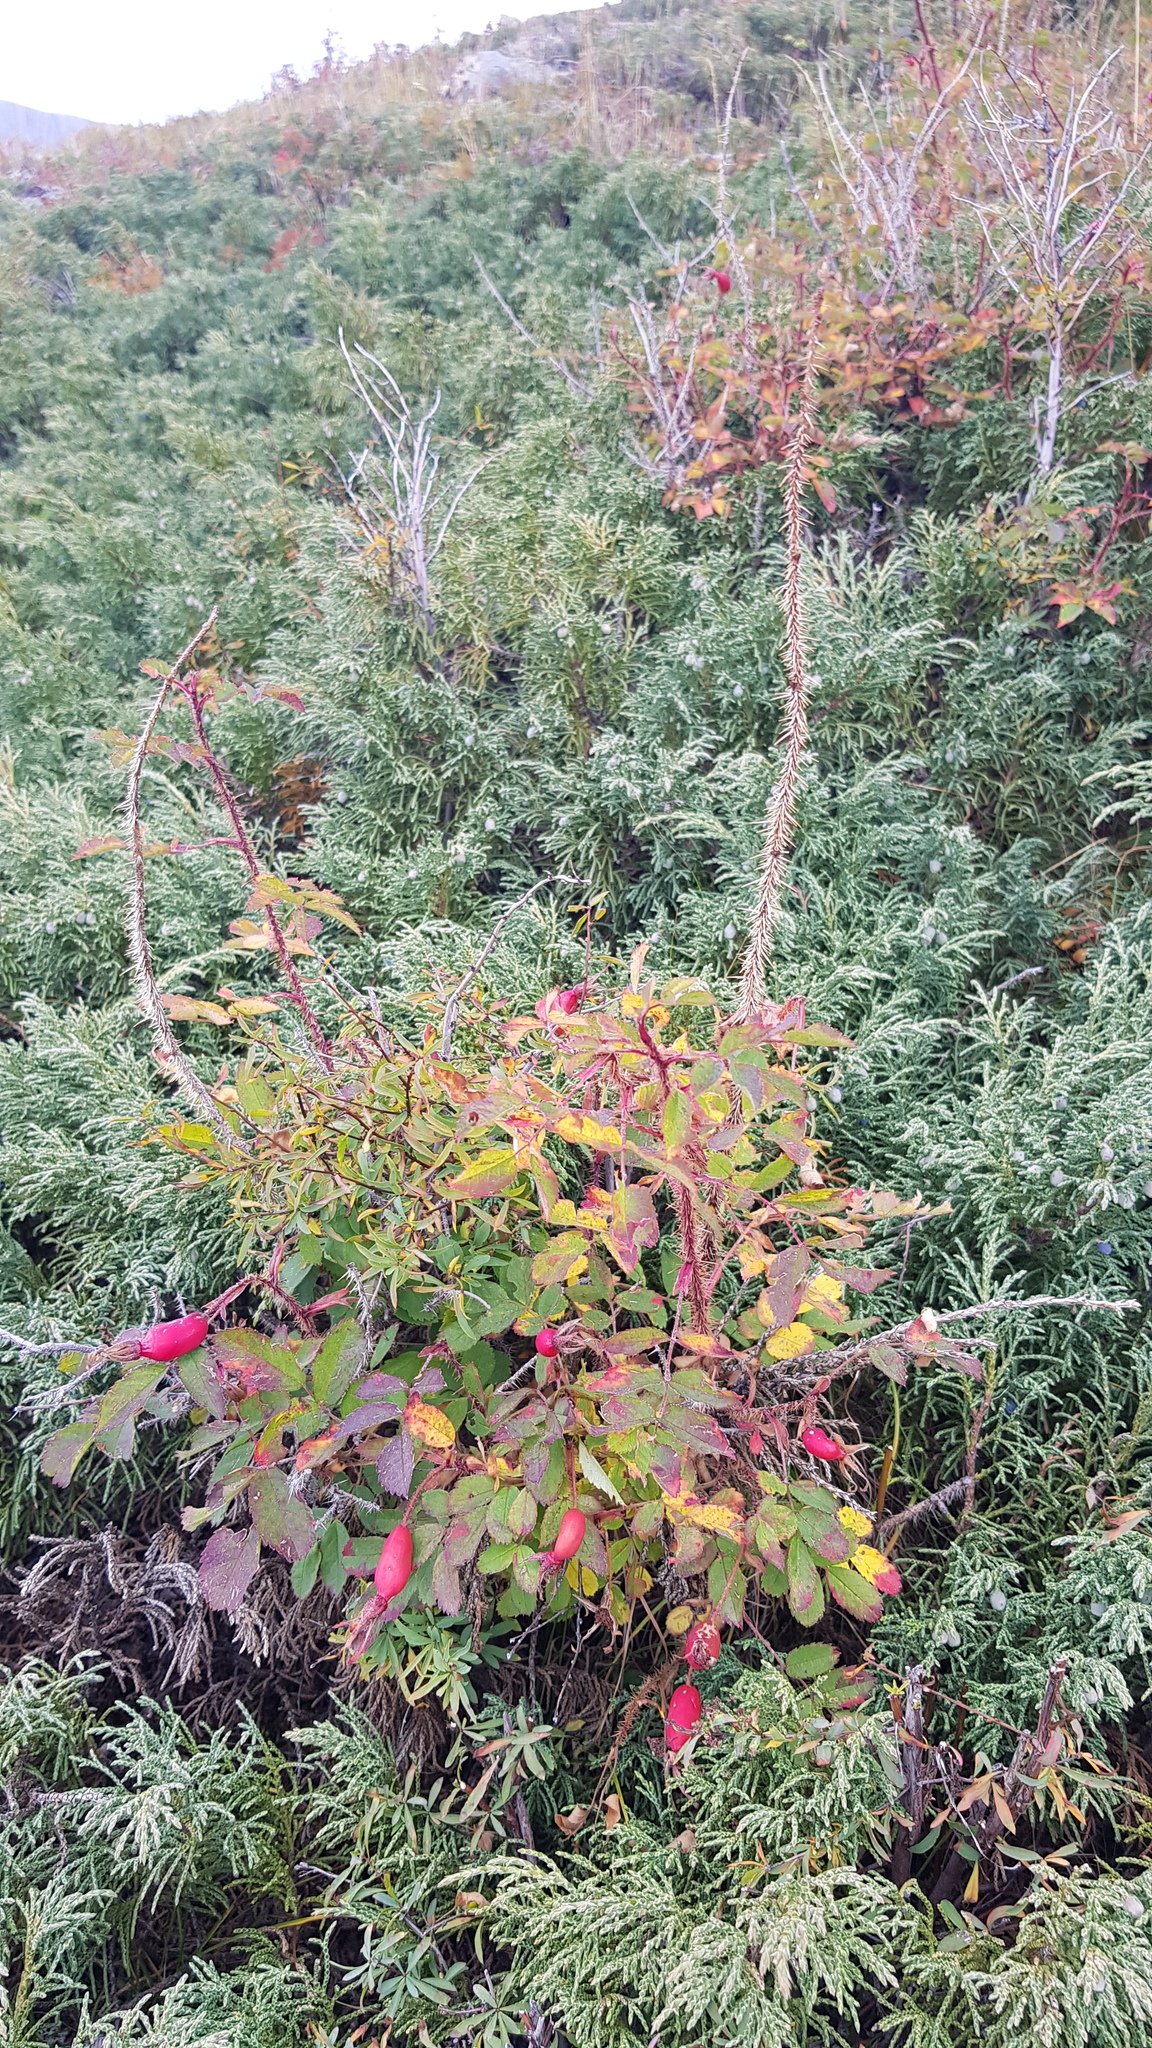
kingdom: Plantae
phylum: Tracheophyta
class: Magnoliopsida
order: Rosales
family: Rosaceae
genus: Rosa
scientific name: Rosa acicularis
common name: Prickly rose
